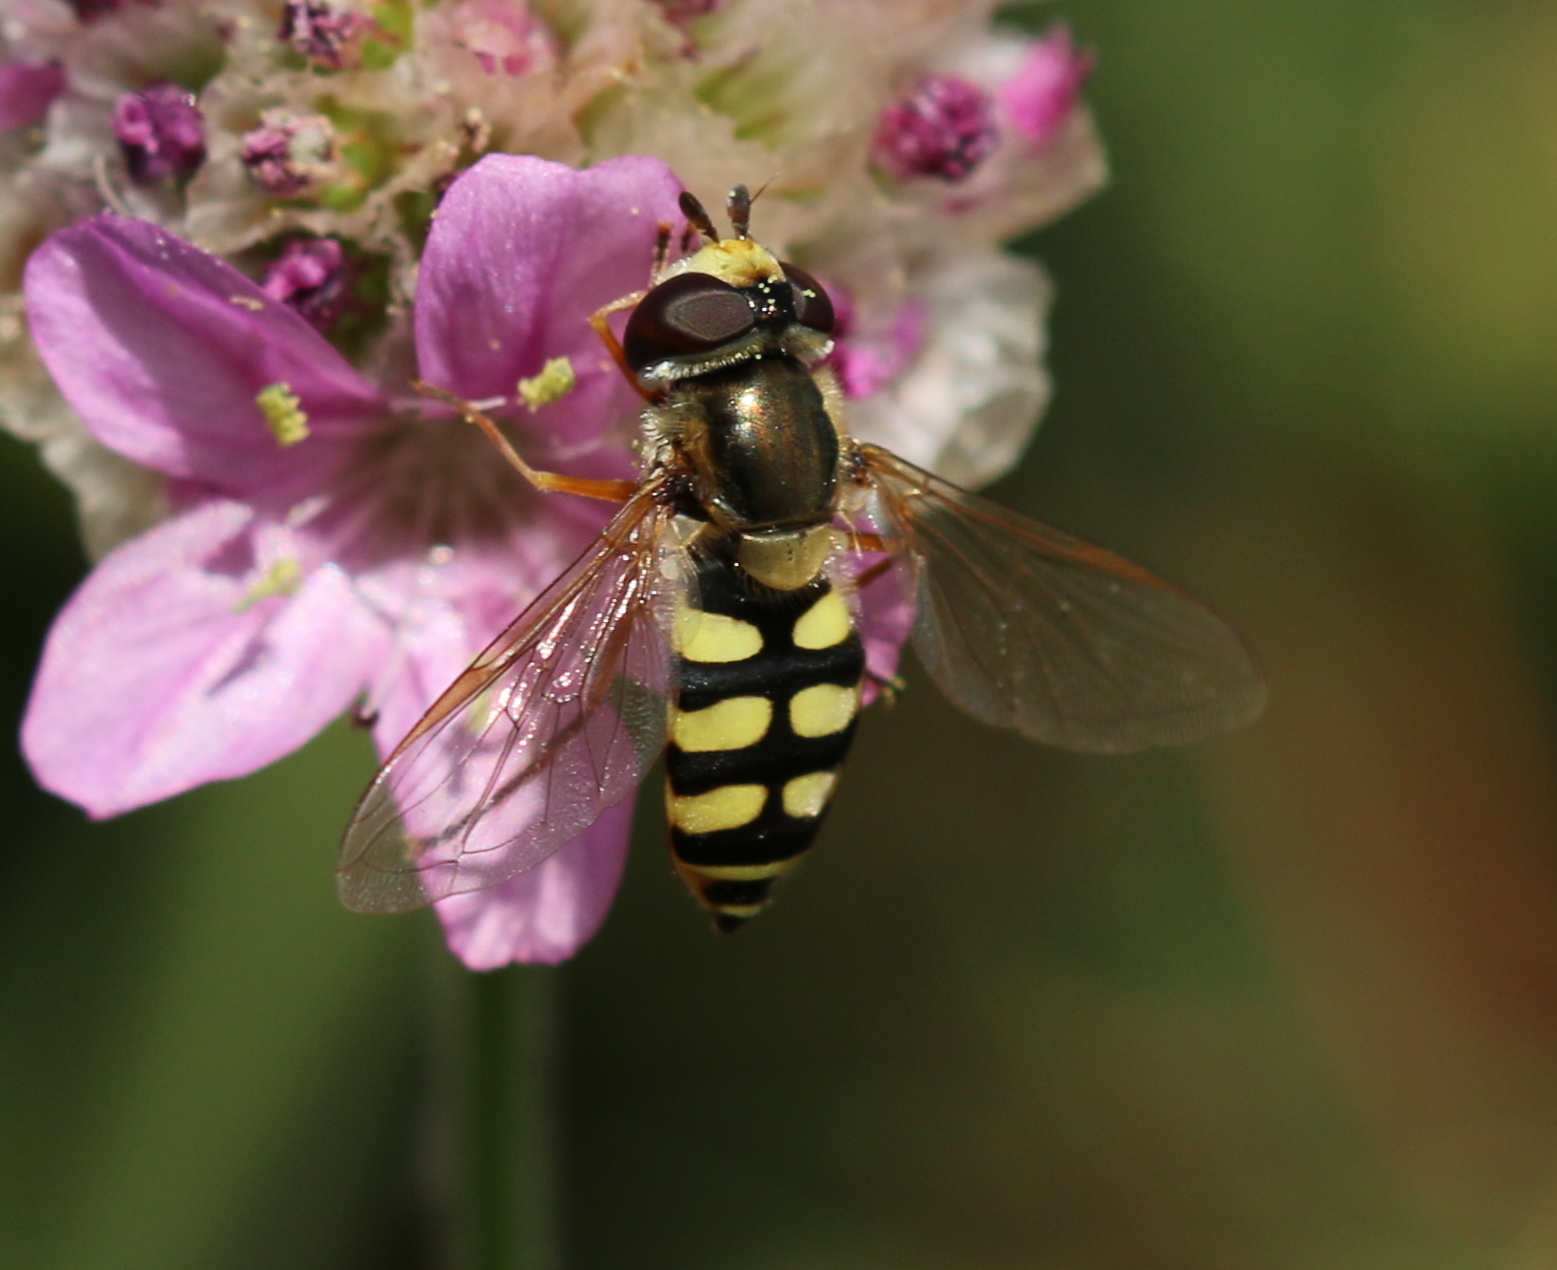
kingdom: Animalia
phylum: Arthropoda
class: Insecta
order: Diptera
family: Syrphidae
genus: Eupeodes
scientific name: Eupeodes corollae
